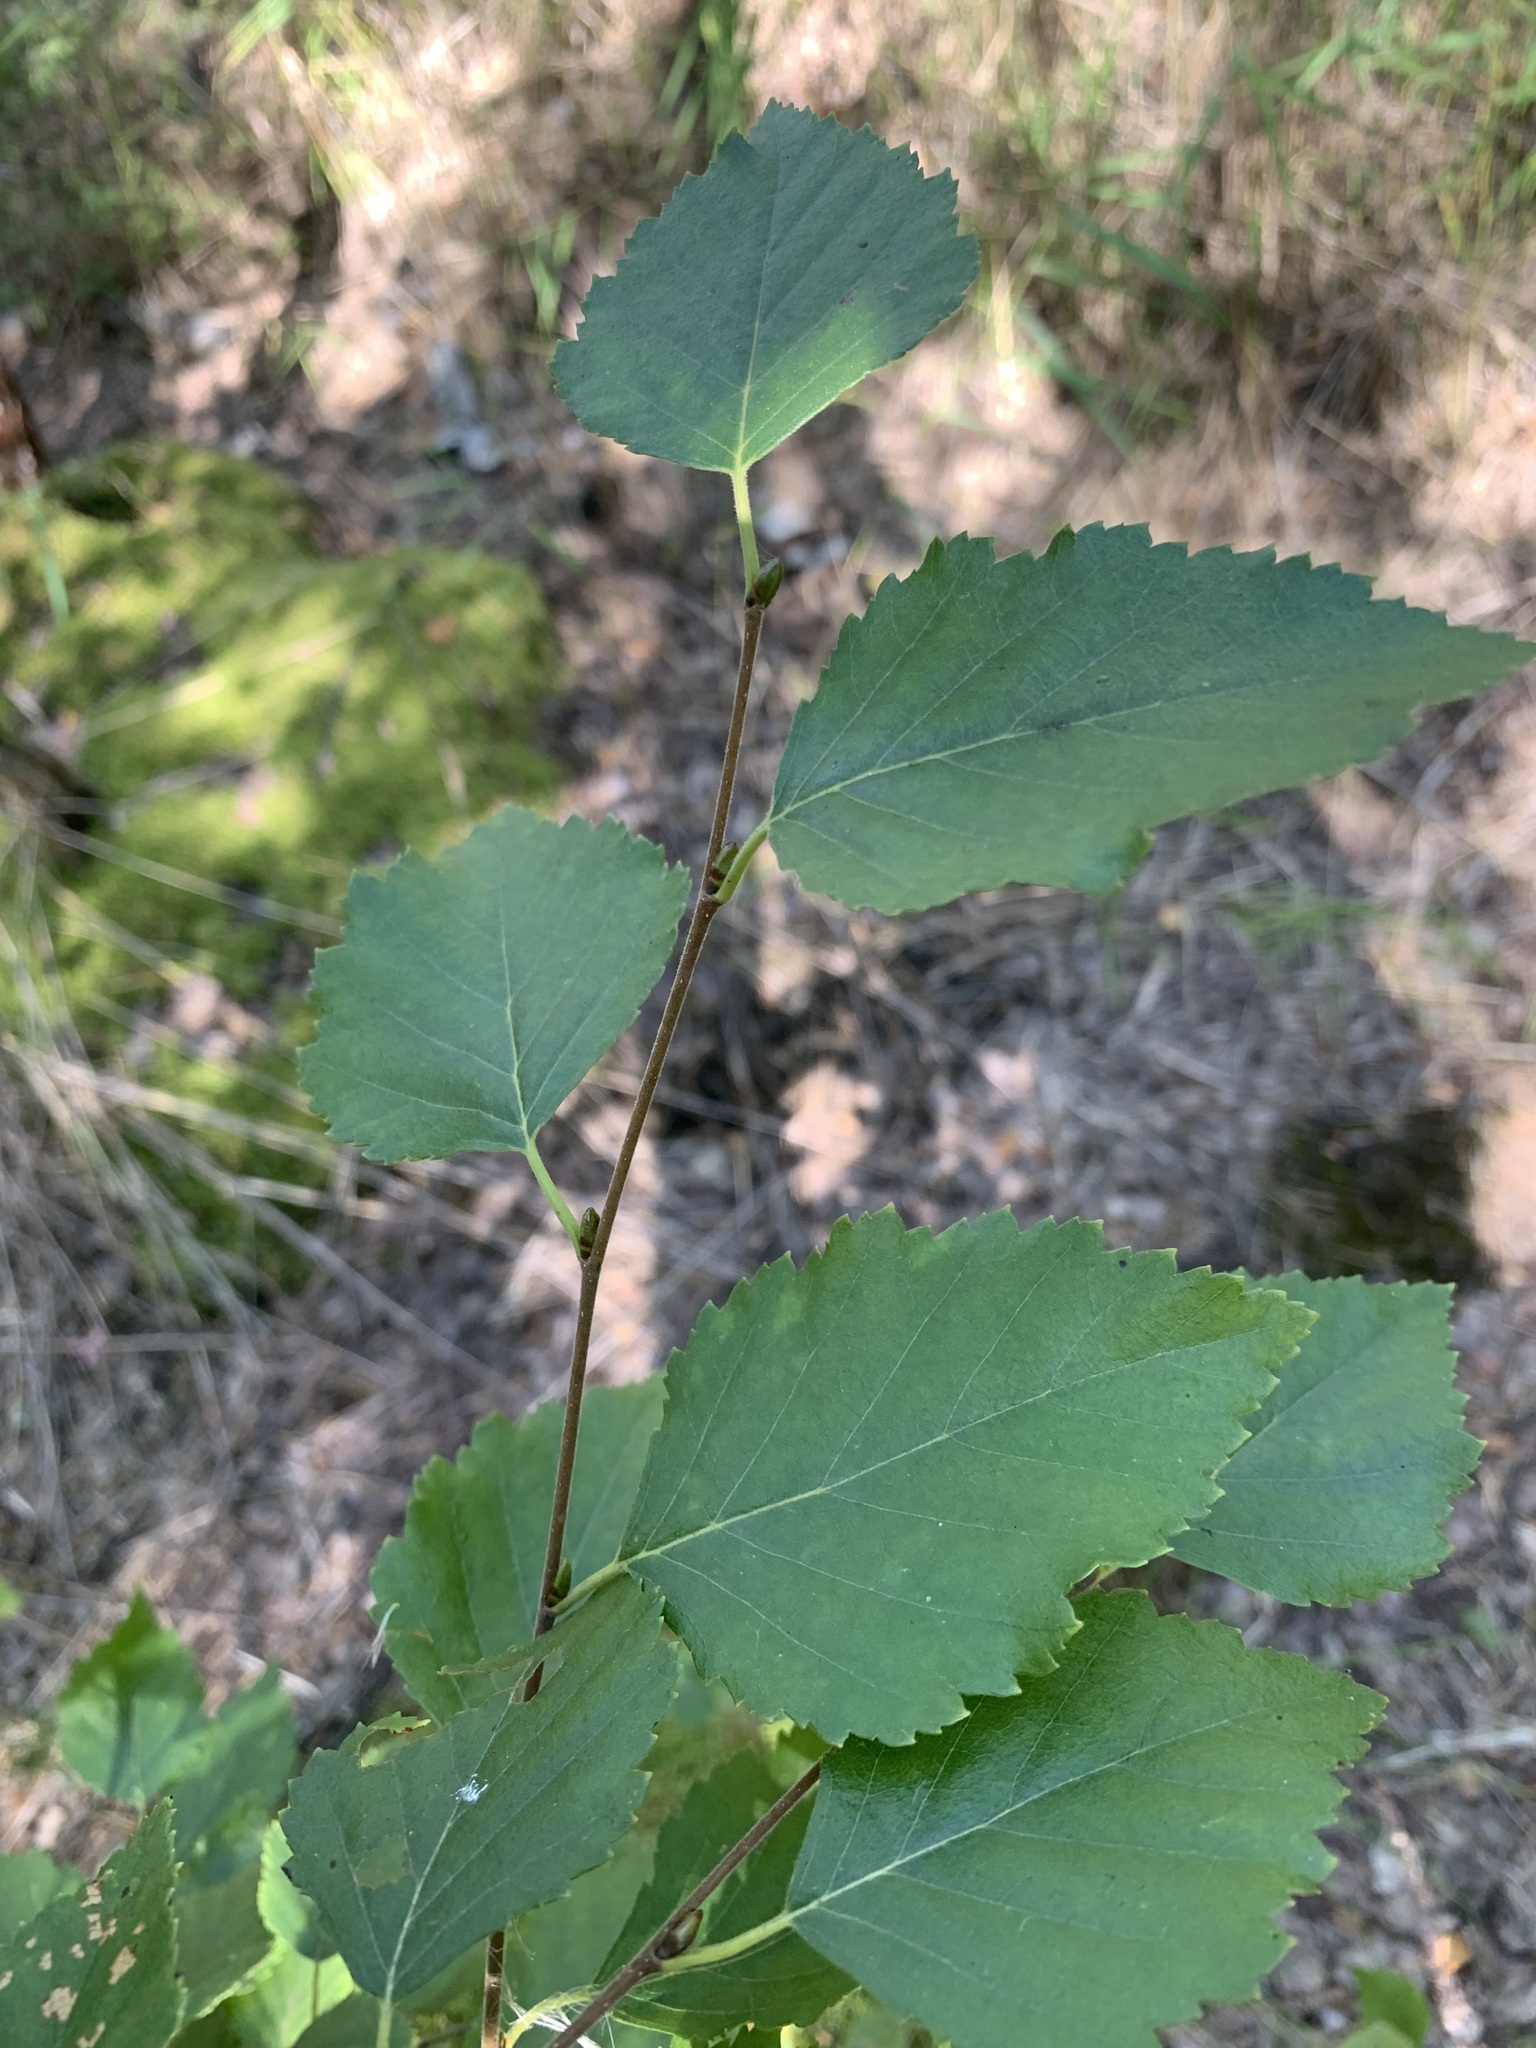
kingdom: Plantae
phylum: Tracheophyta
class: Magnoliopsida
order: Fagales
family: Betulaceae
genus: Betula
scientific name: Betula pubescens
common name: Downy birch
